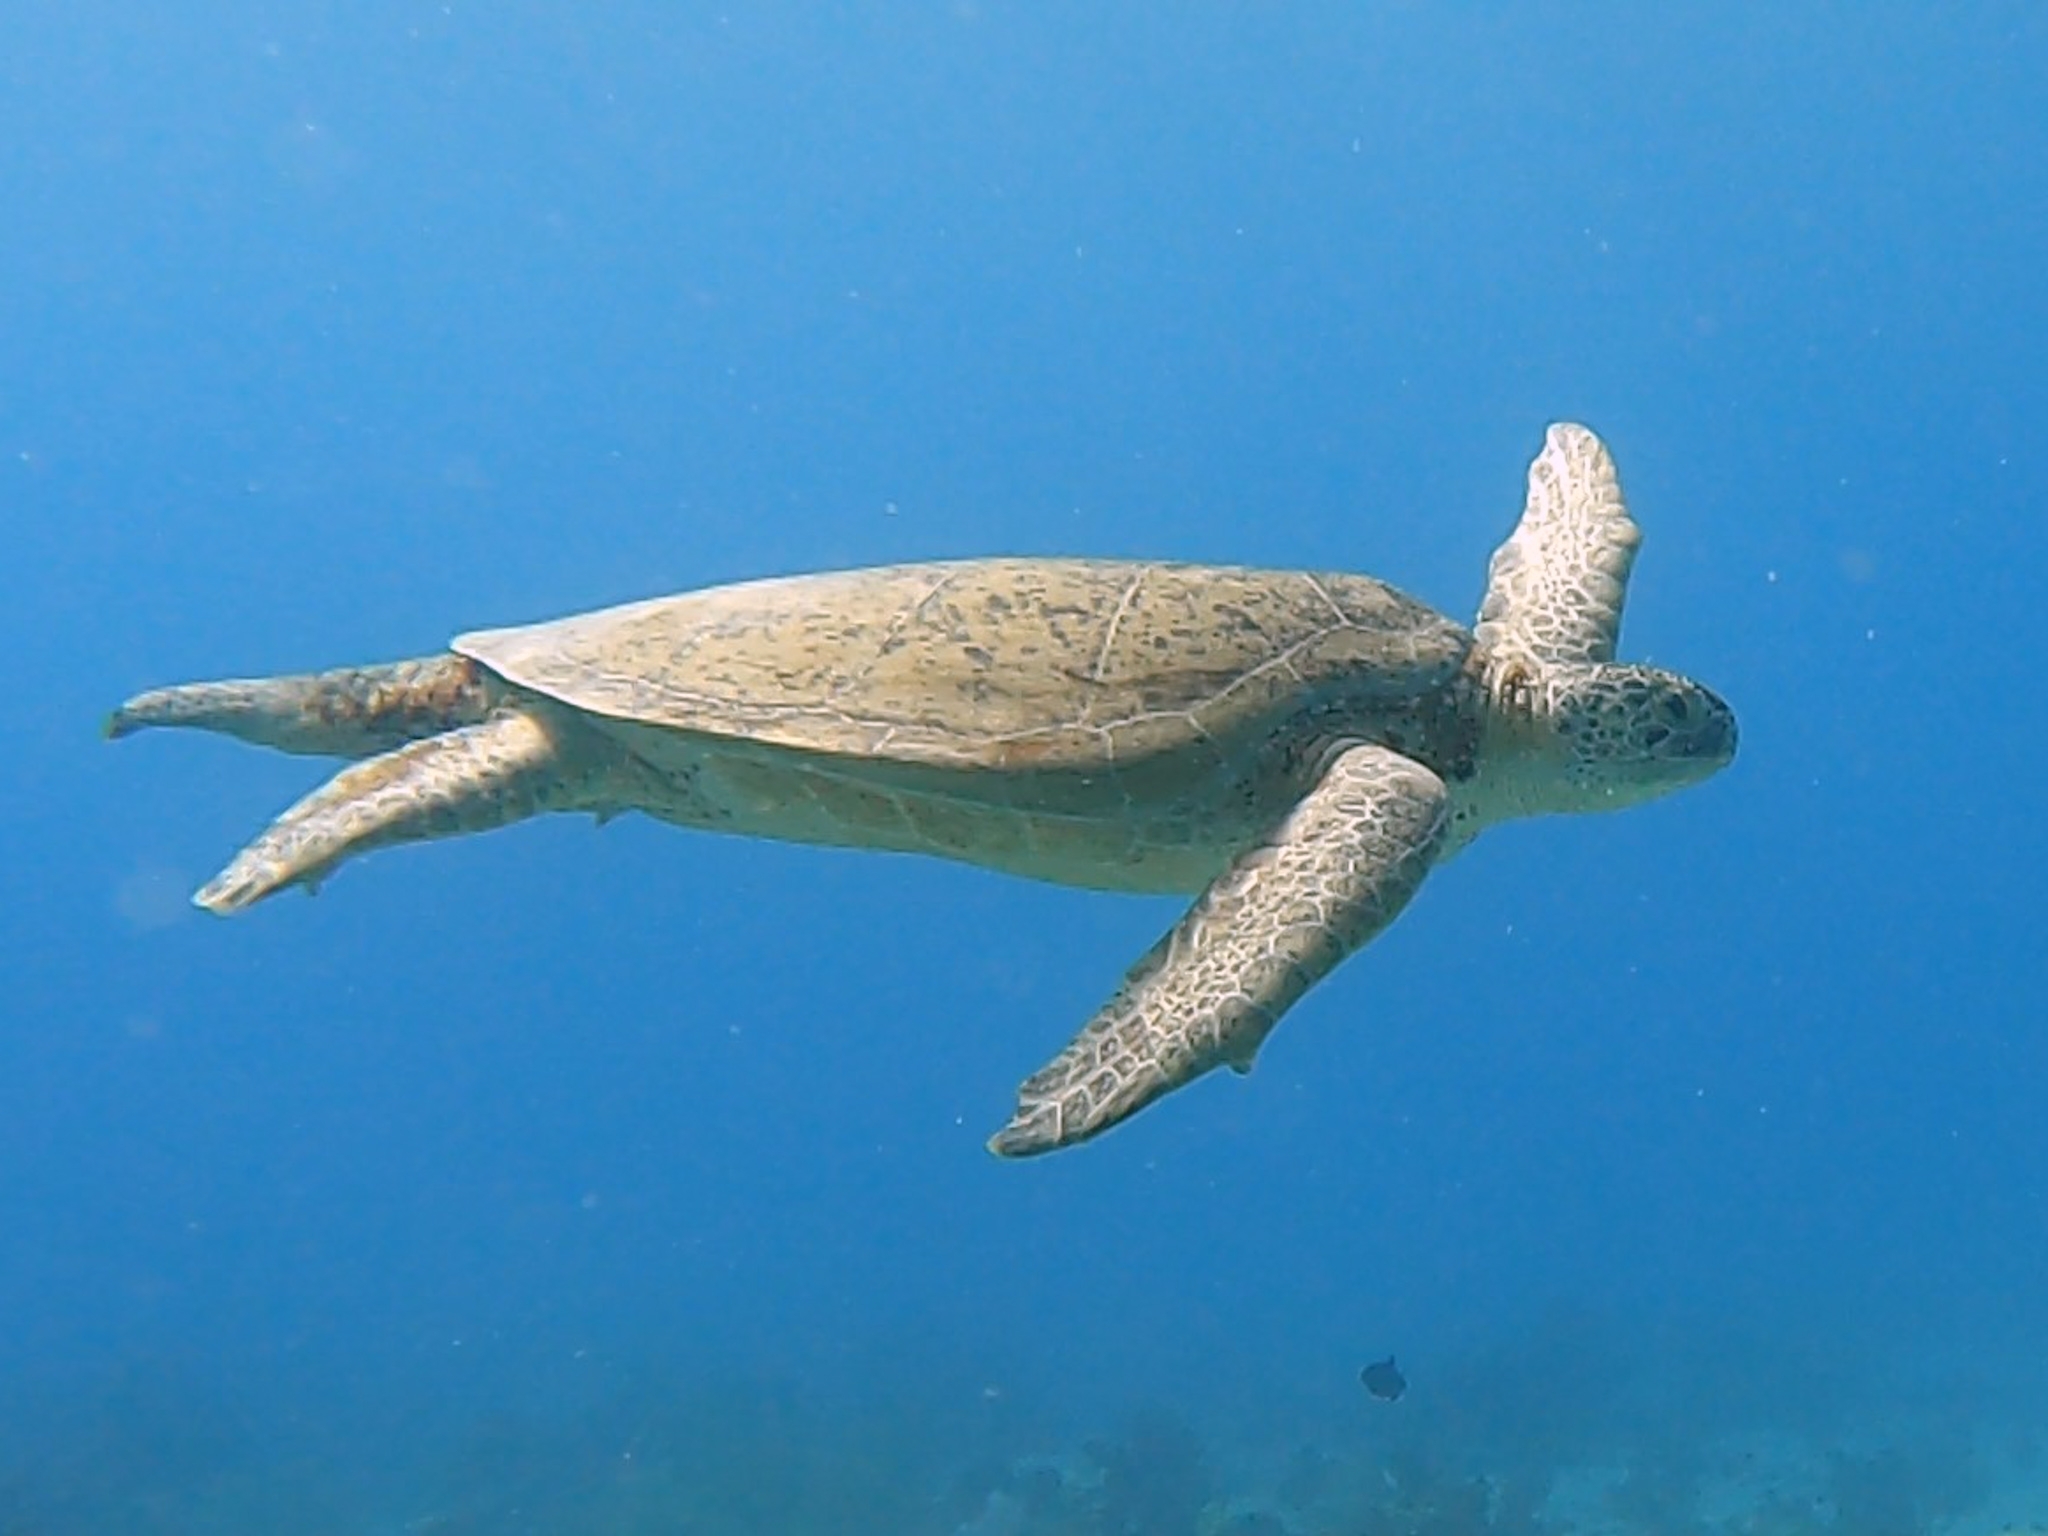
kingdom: Animalia
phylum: Chordata
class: Testudines
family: Cheloniidae
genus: Chelonia
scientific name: Chelonia mydas
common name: Green turtle
